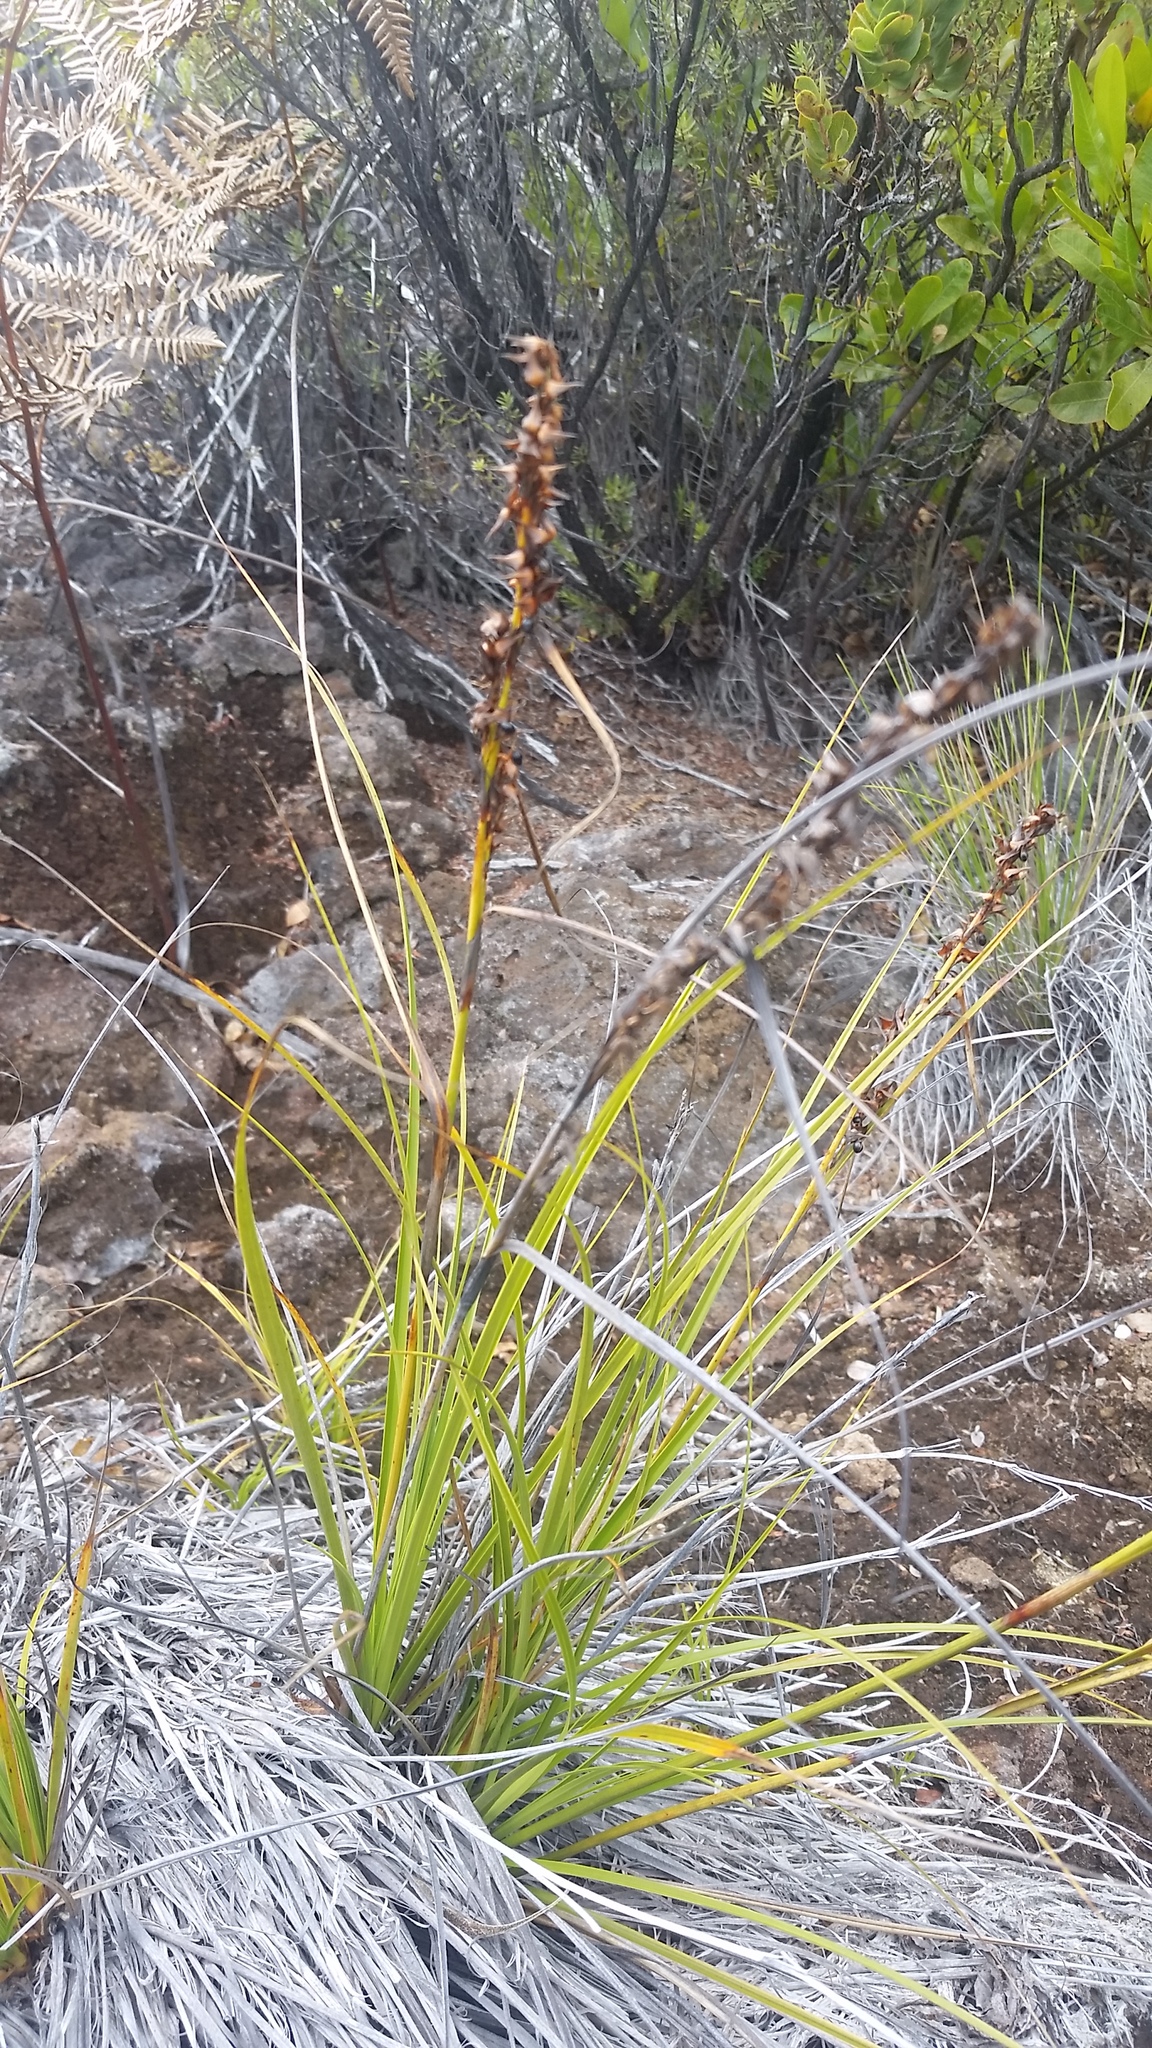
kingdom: Plantae
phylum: Tracheophyta
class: Liliopsida
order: Poales
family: Cyperaceae
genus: Morelotia
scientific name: Morelotia gahniiformis
